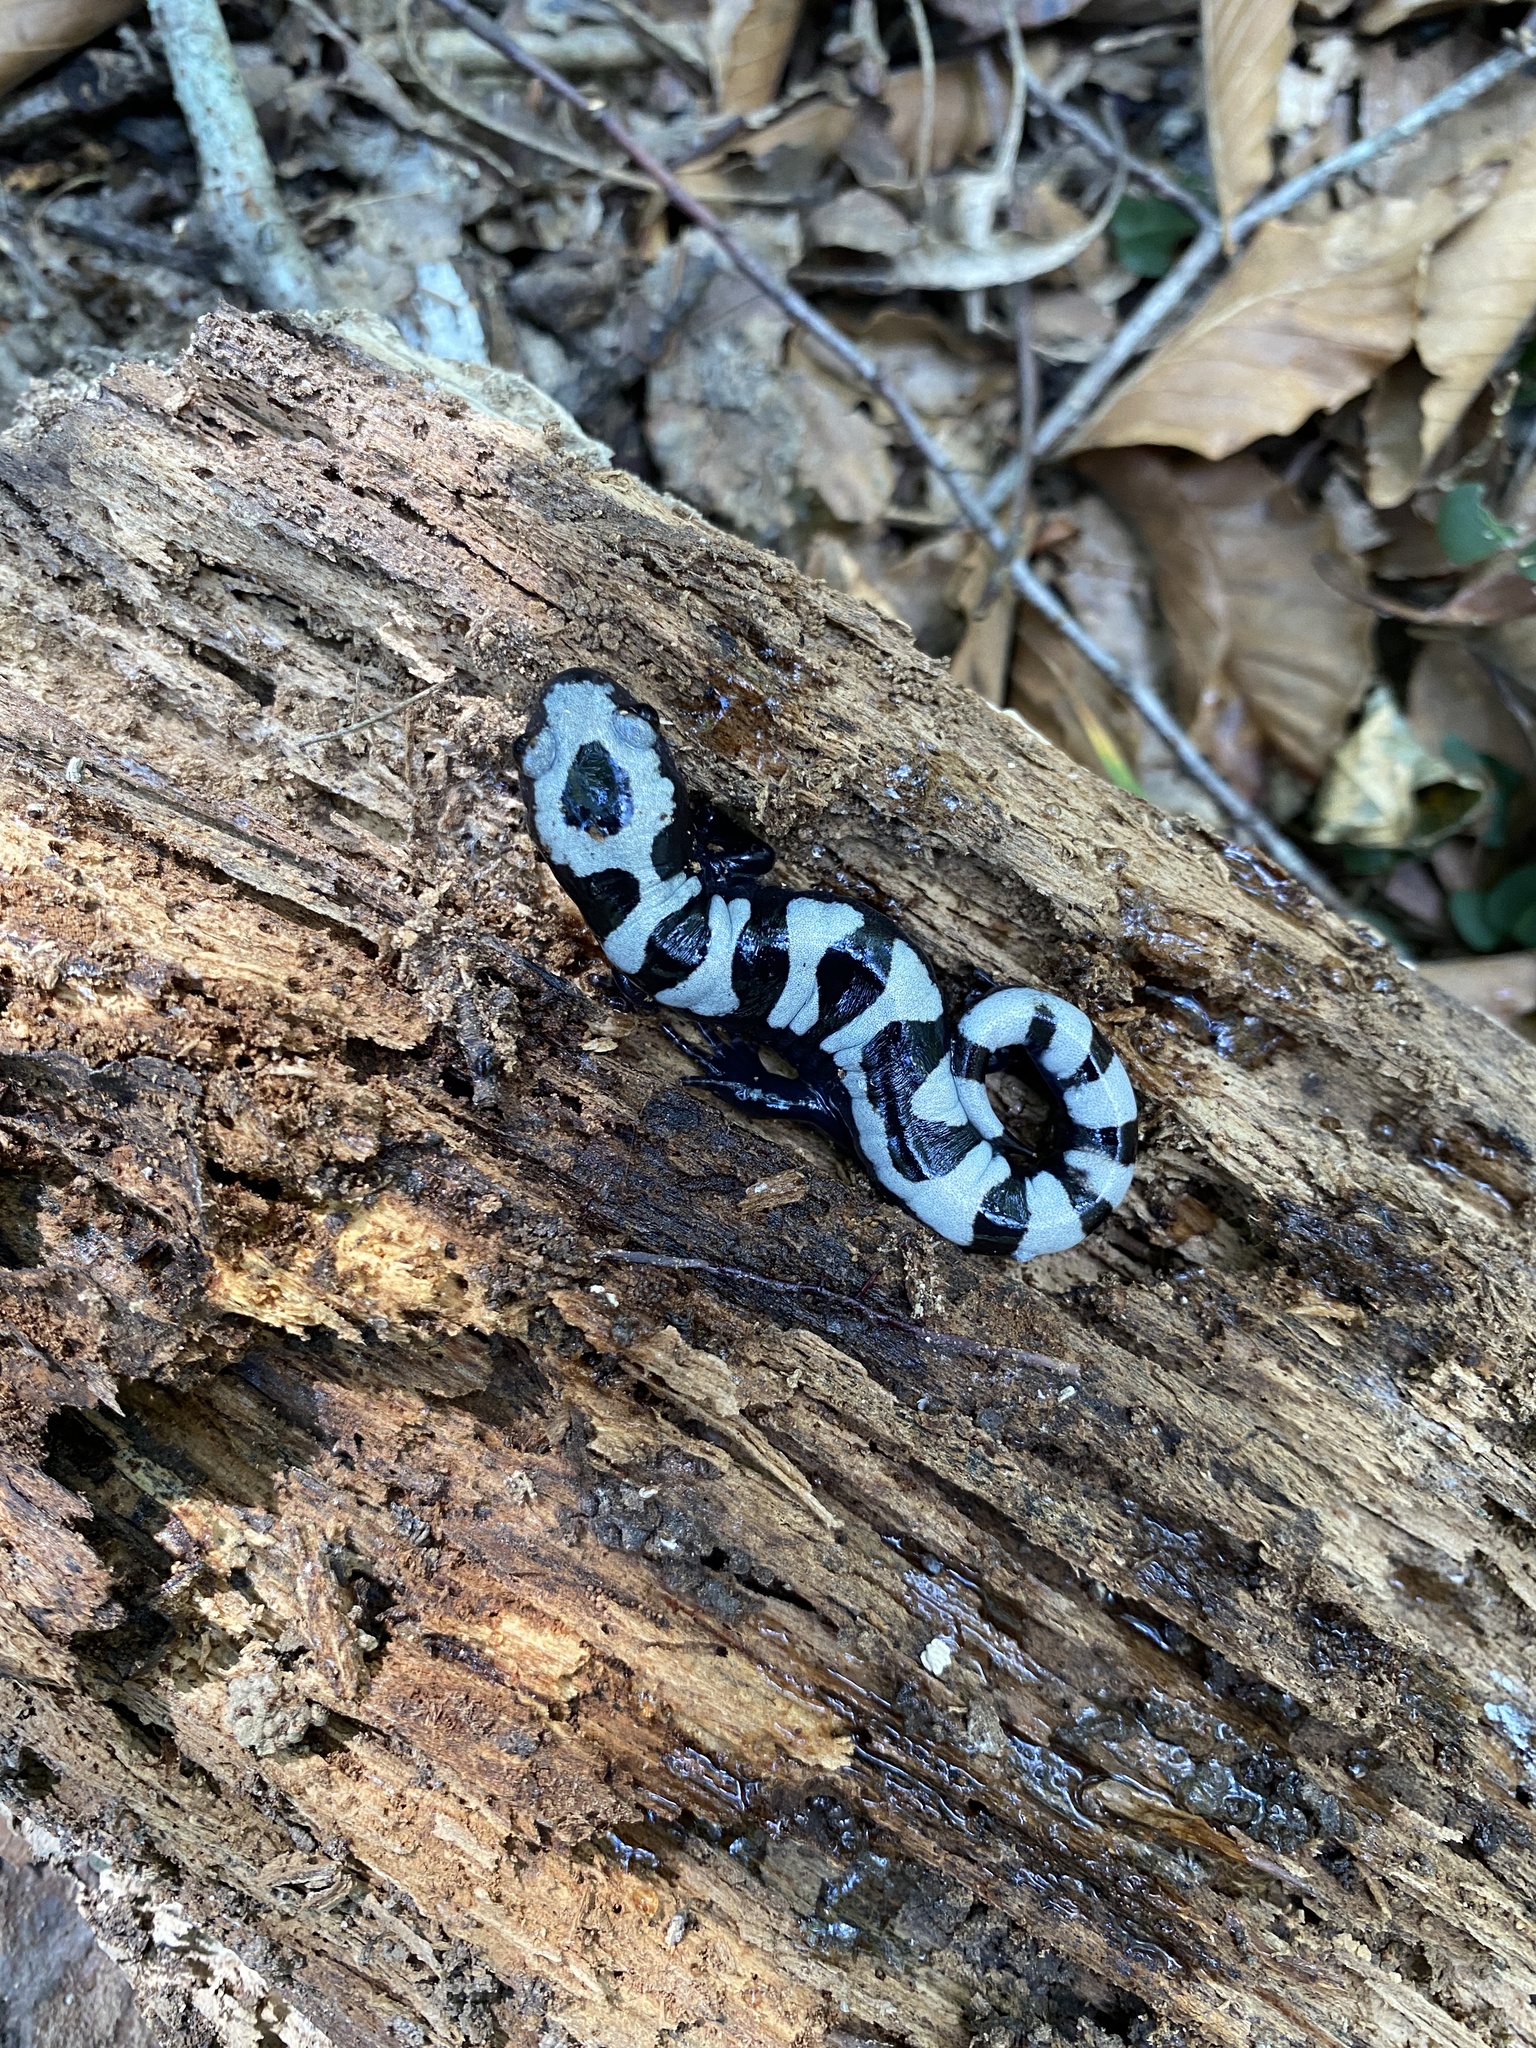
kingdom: Animalia
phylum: Chordata
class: Amphibia
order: Caudata
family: Ambystomatidae
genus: Ambystoma
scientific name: Ambystoma opacum
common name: Marbled salamander
